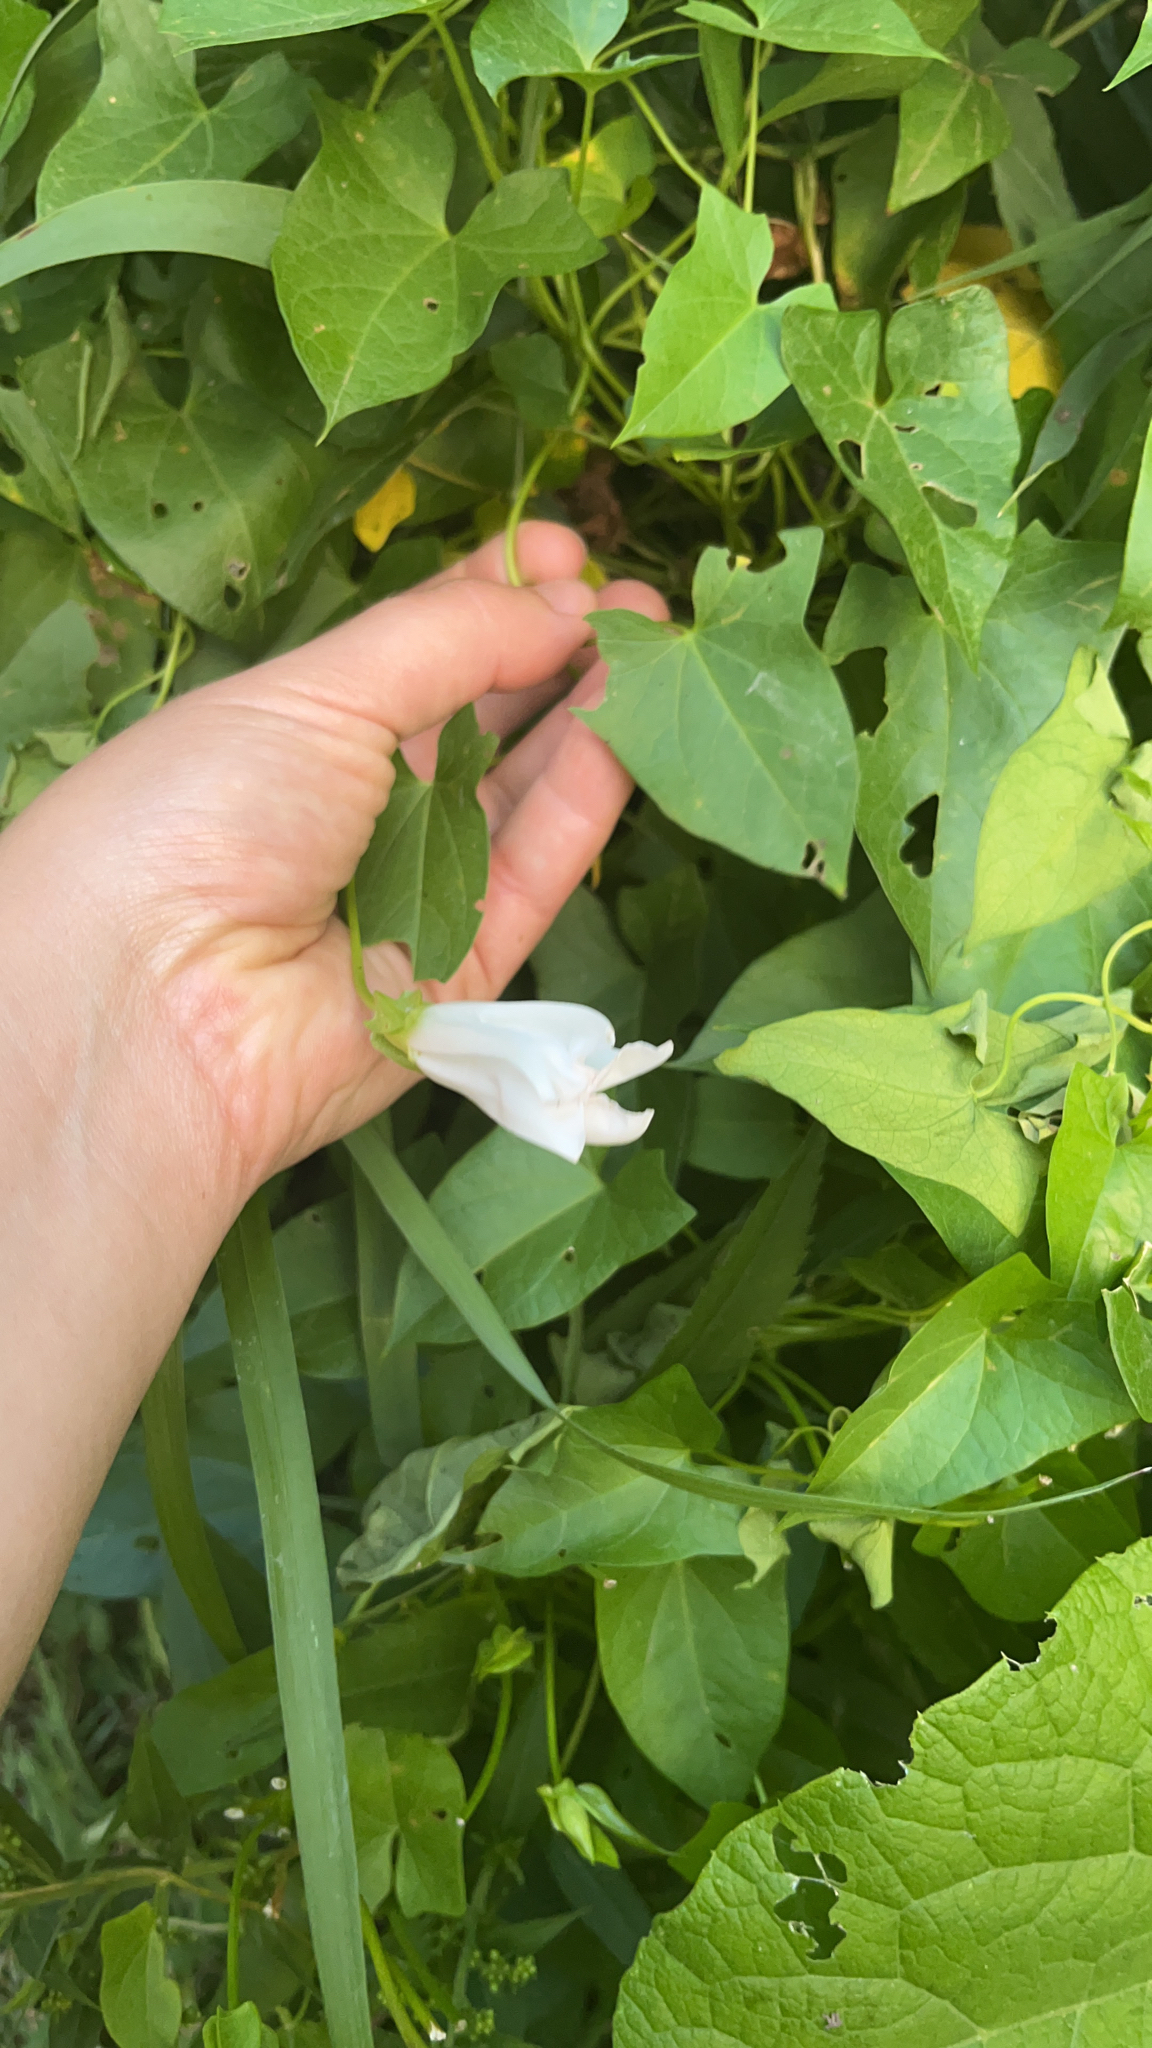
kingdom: Plantae
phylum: Tracheophyta
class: Magnoliopsida
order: Solanales
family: Convolvulaceae
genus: Calystegia
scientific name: Calystegia sepium
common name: Hedge bindweed
